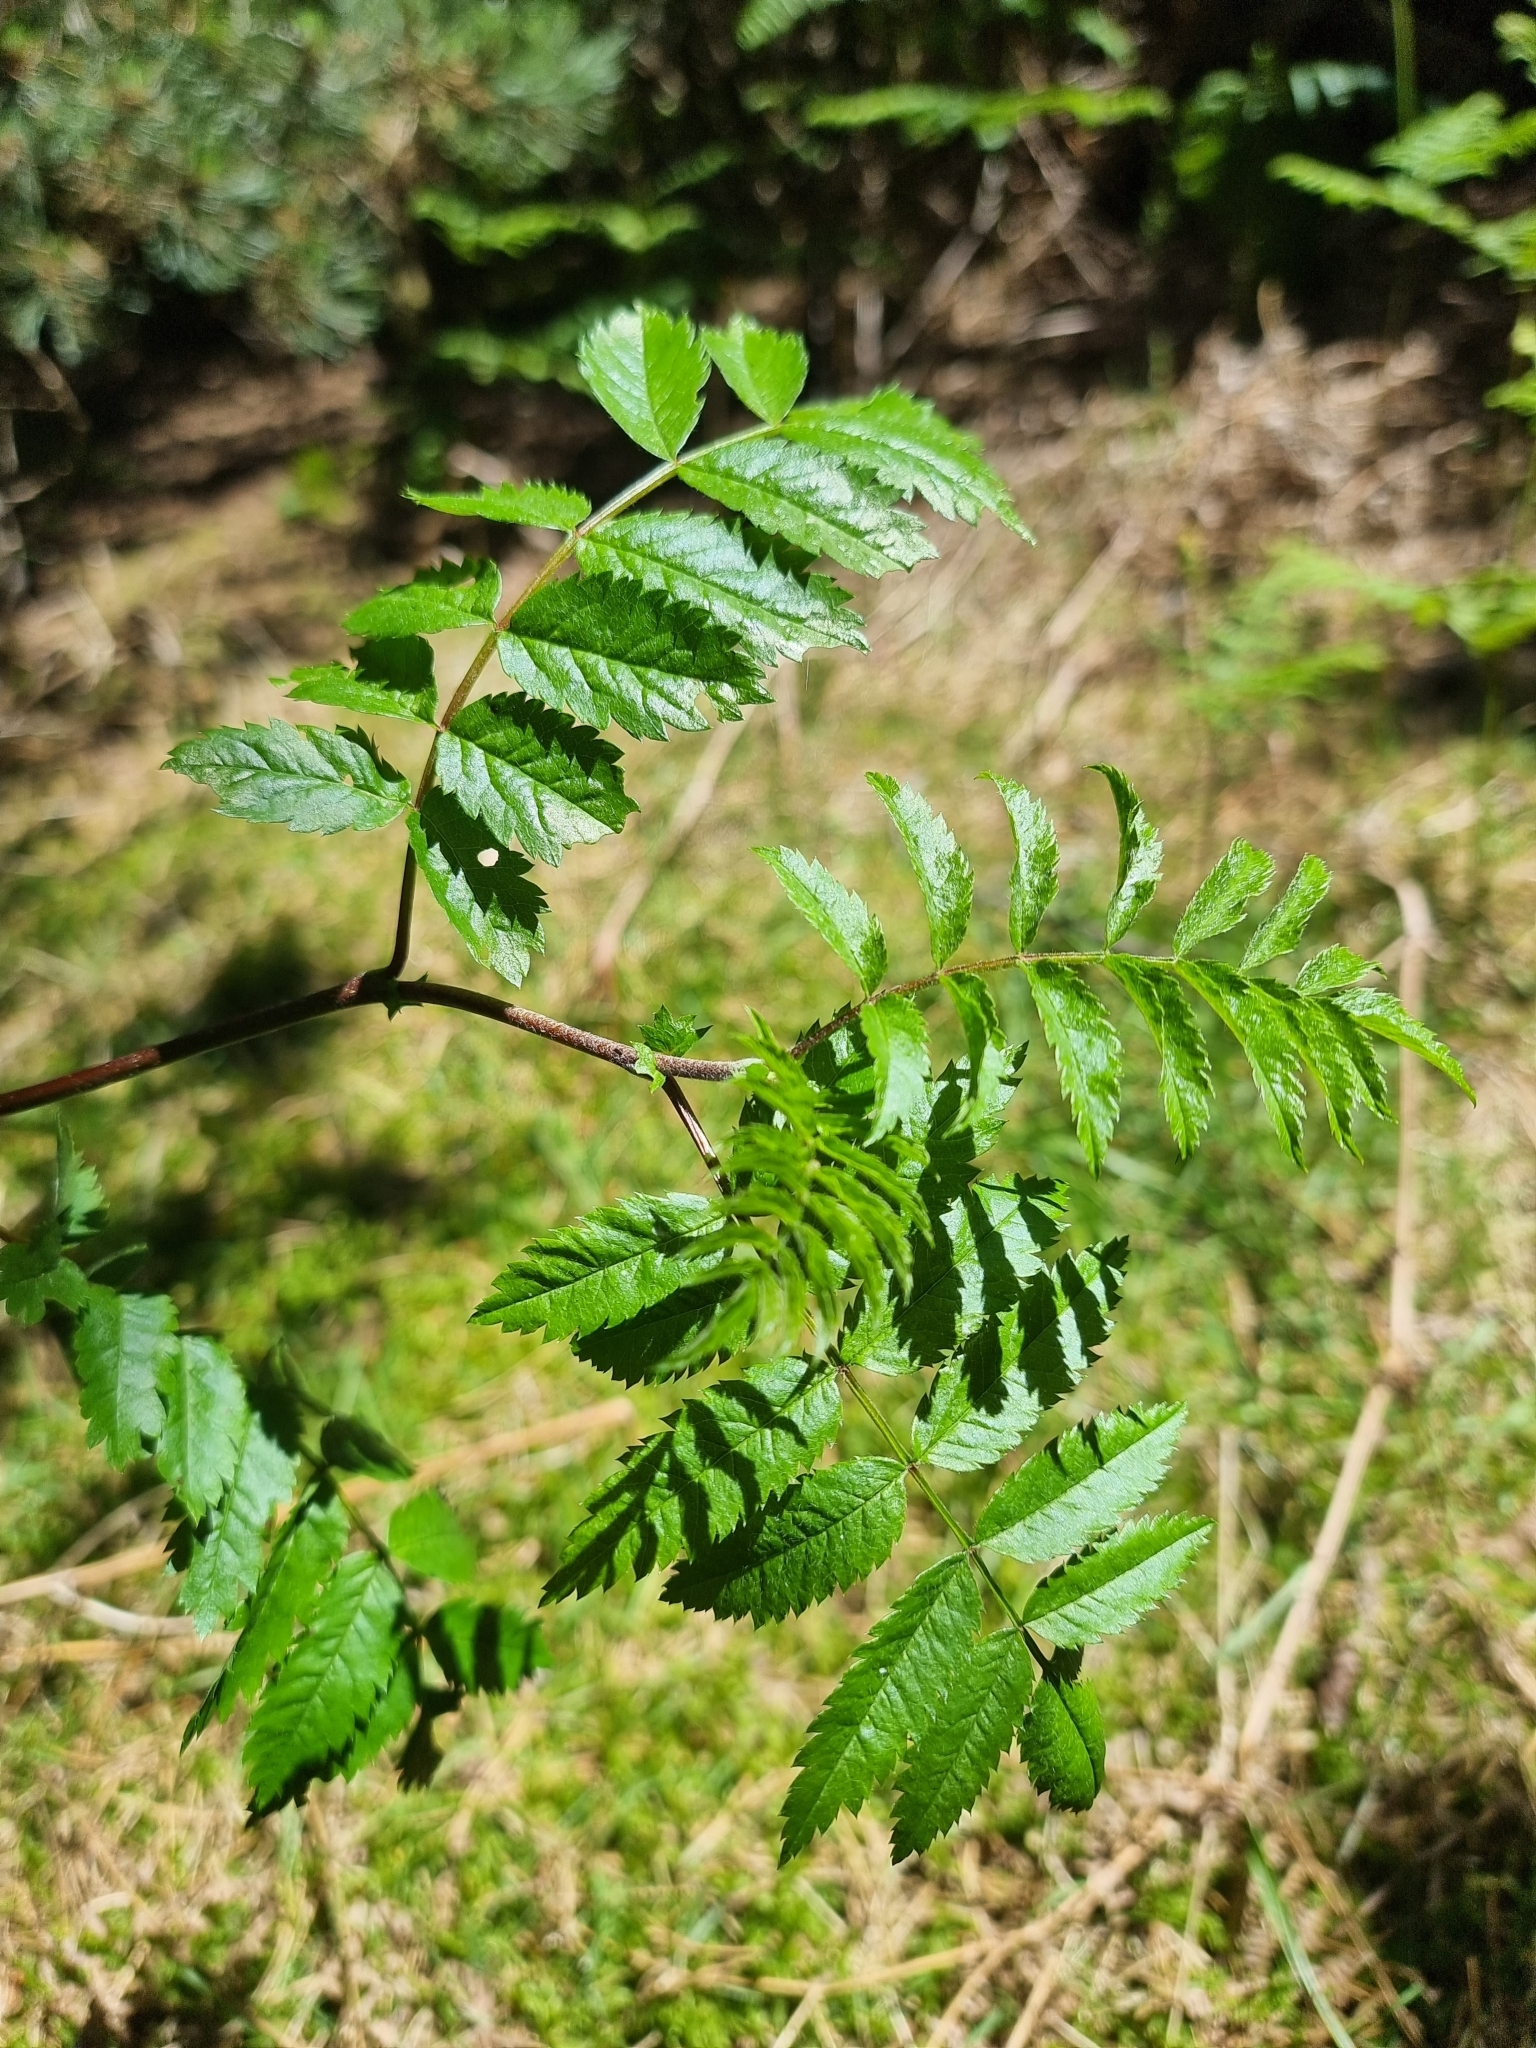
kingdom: Plantae
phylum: Tracheophyta
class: Magnoliopsida
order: Rosales
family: Rosaceae
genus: Sorbus
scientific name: Sorbus maderensis
